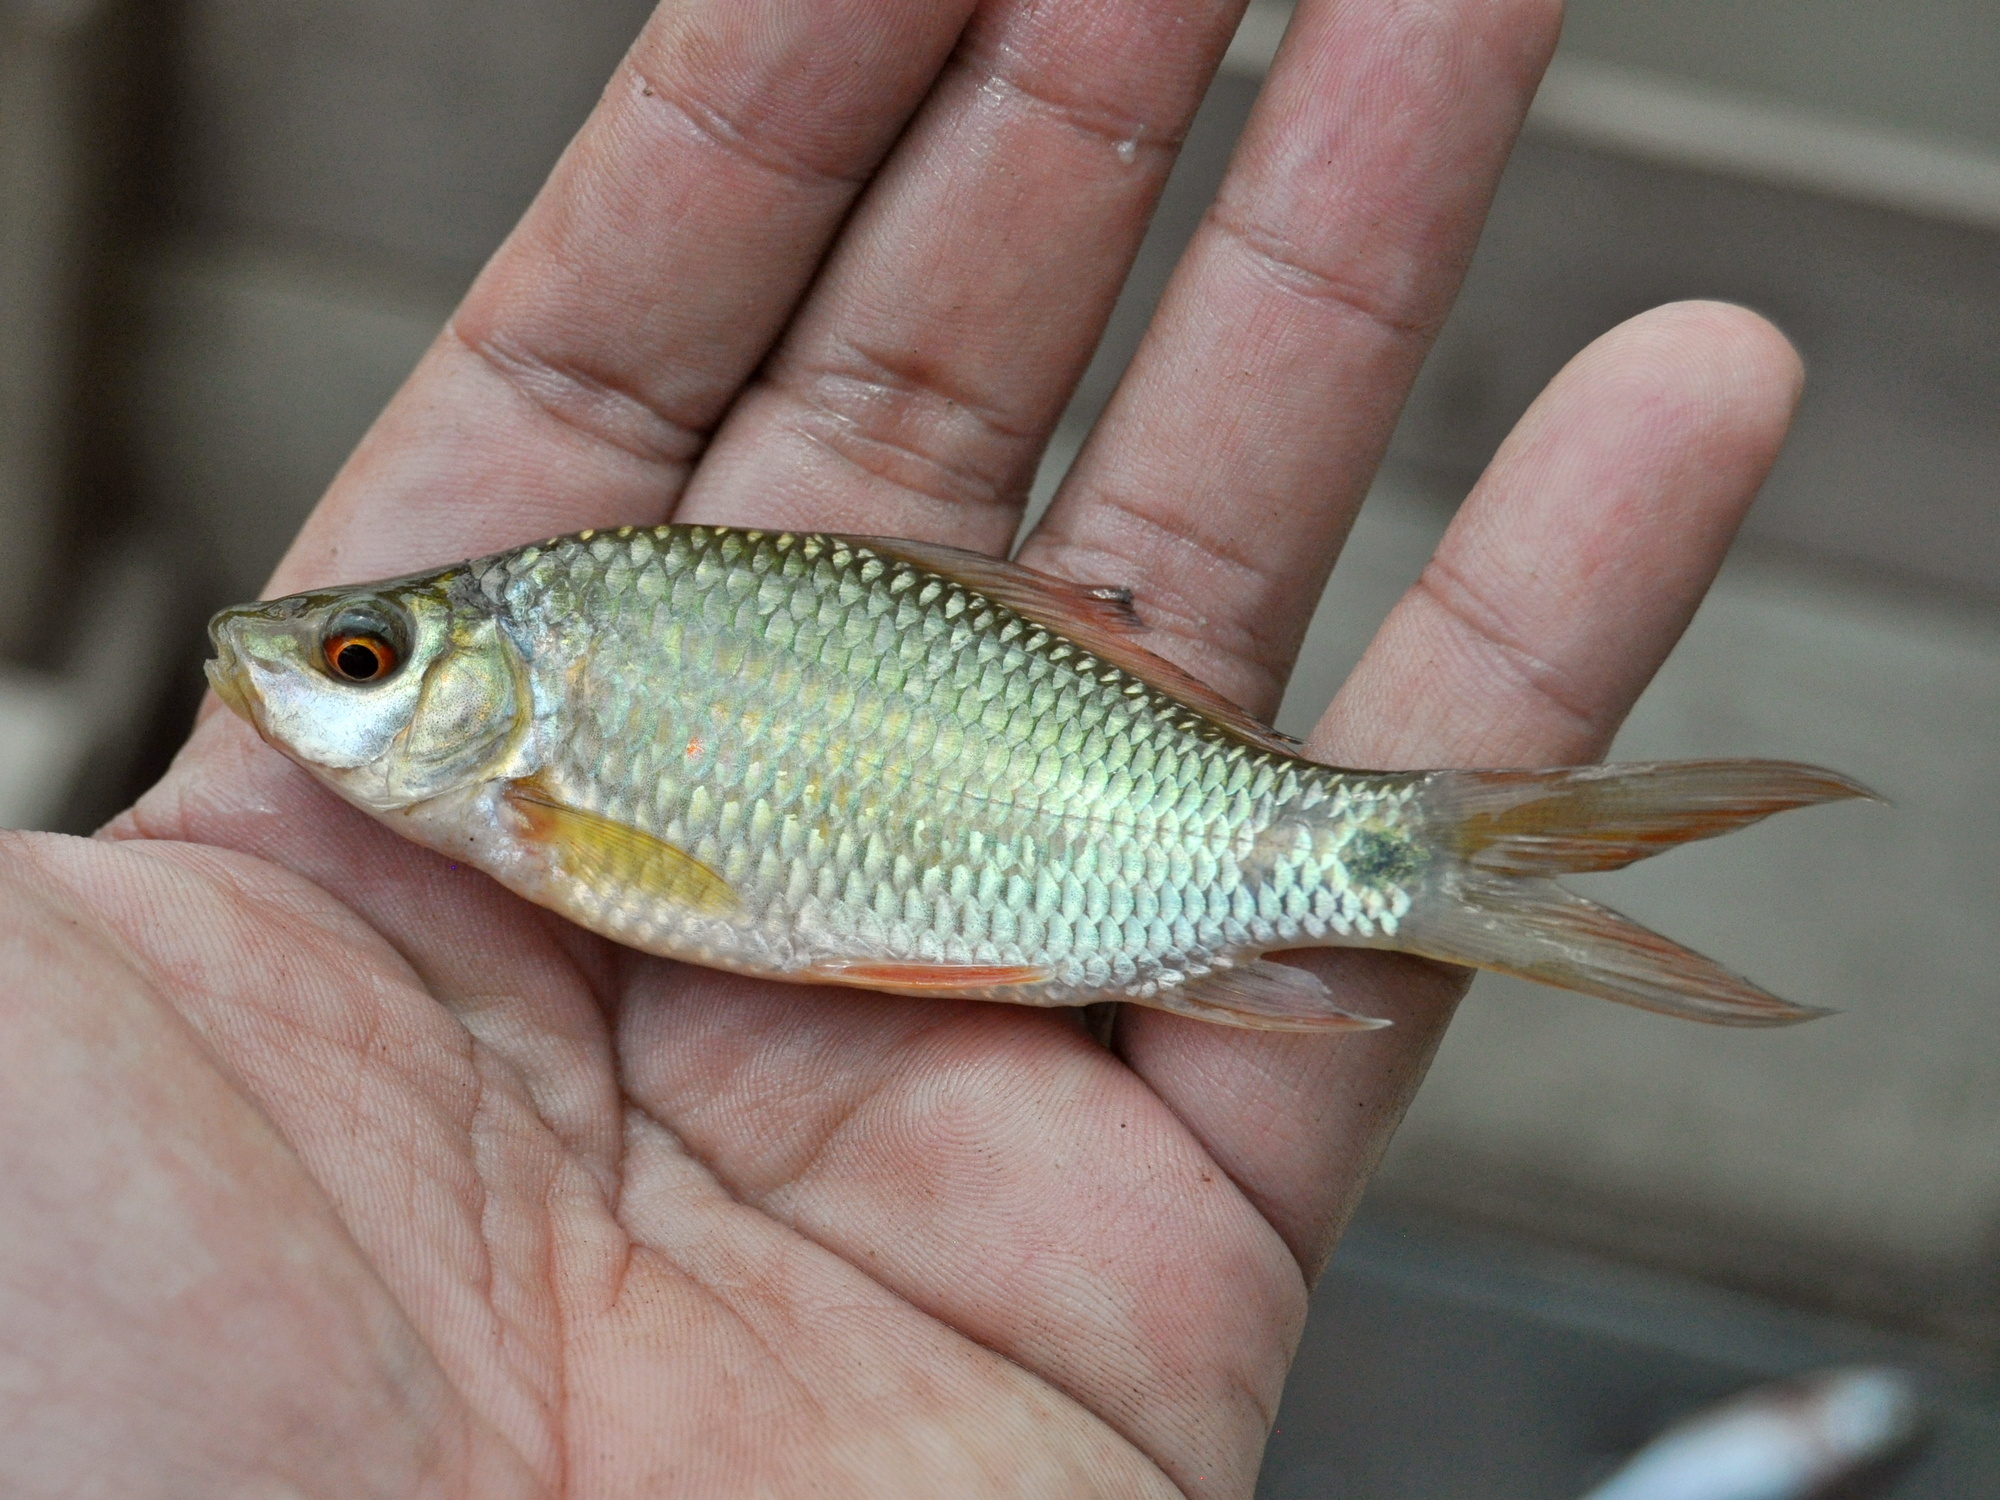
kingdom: Animalia
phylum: Chordata
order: Cypriniformes
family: Cyprinidae
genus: Osteochilus
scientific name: Osteochilus vittatus
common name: Silver sharkminnow
